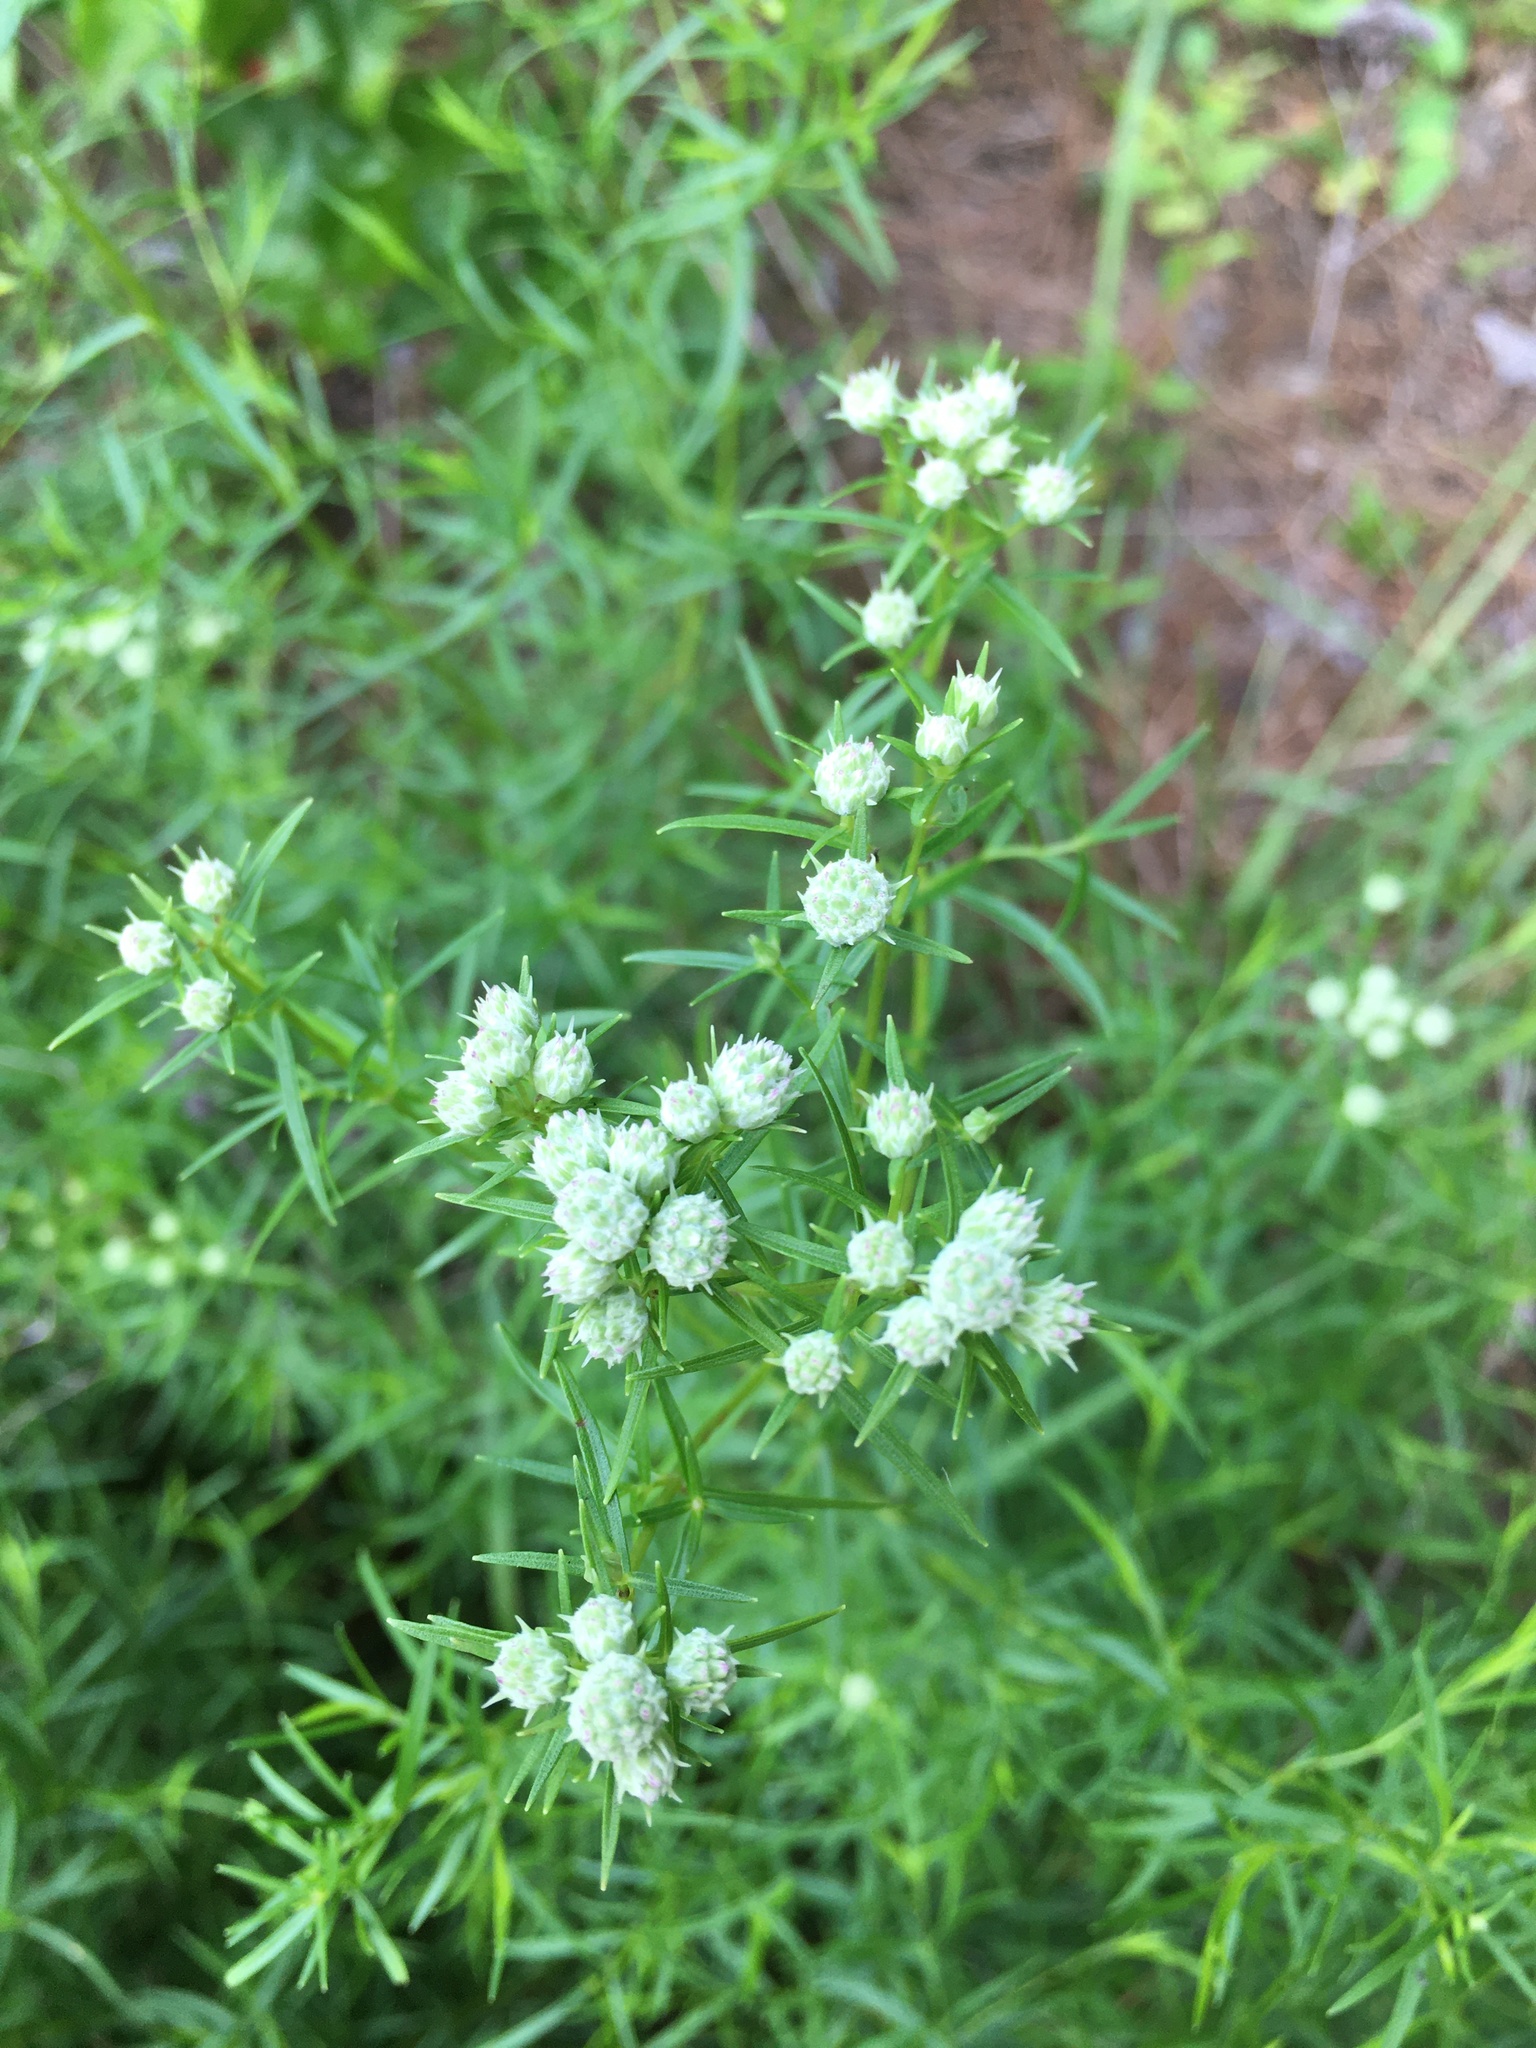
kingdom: Plantae
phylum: Tracheophyta
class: Magnoliopsida
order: Lamiales
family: Lamiaceae
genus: Pycnanthemum
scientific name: Pycnanthemum tenuifolium
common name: Narrow-leaf mountain-mint
